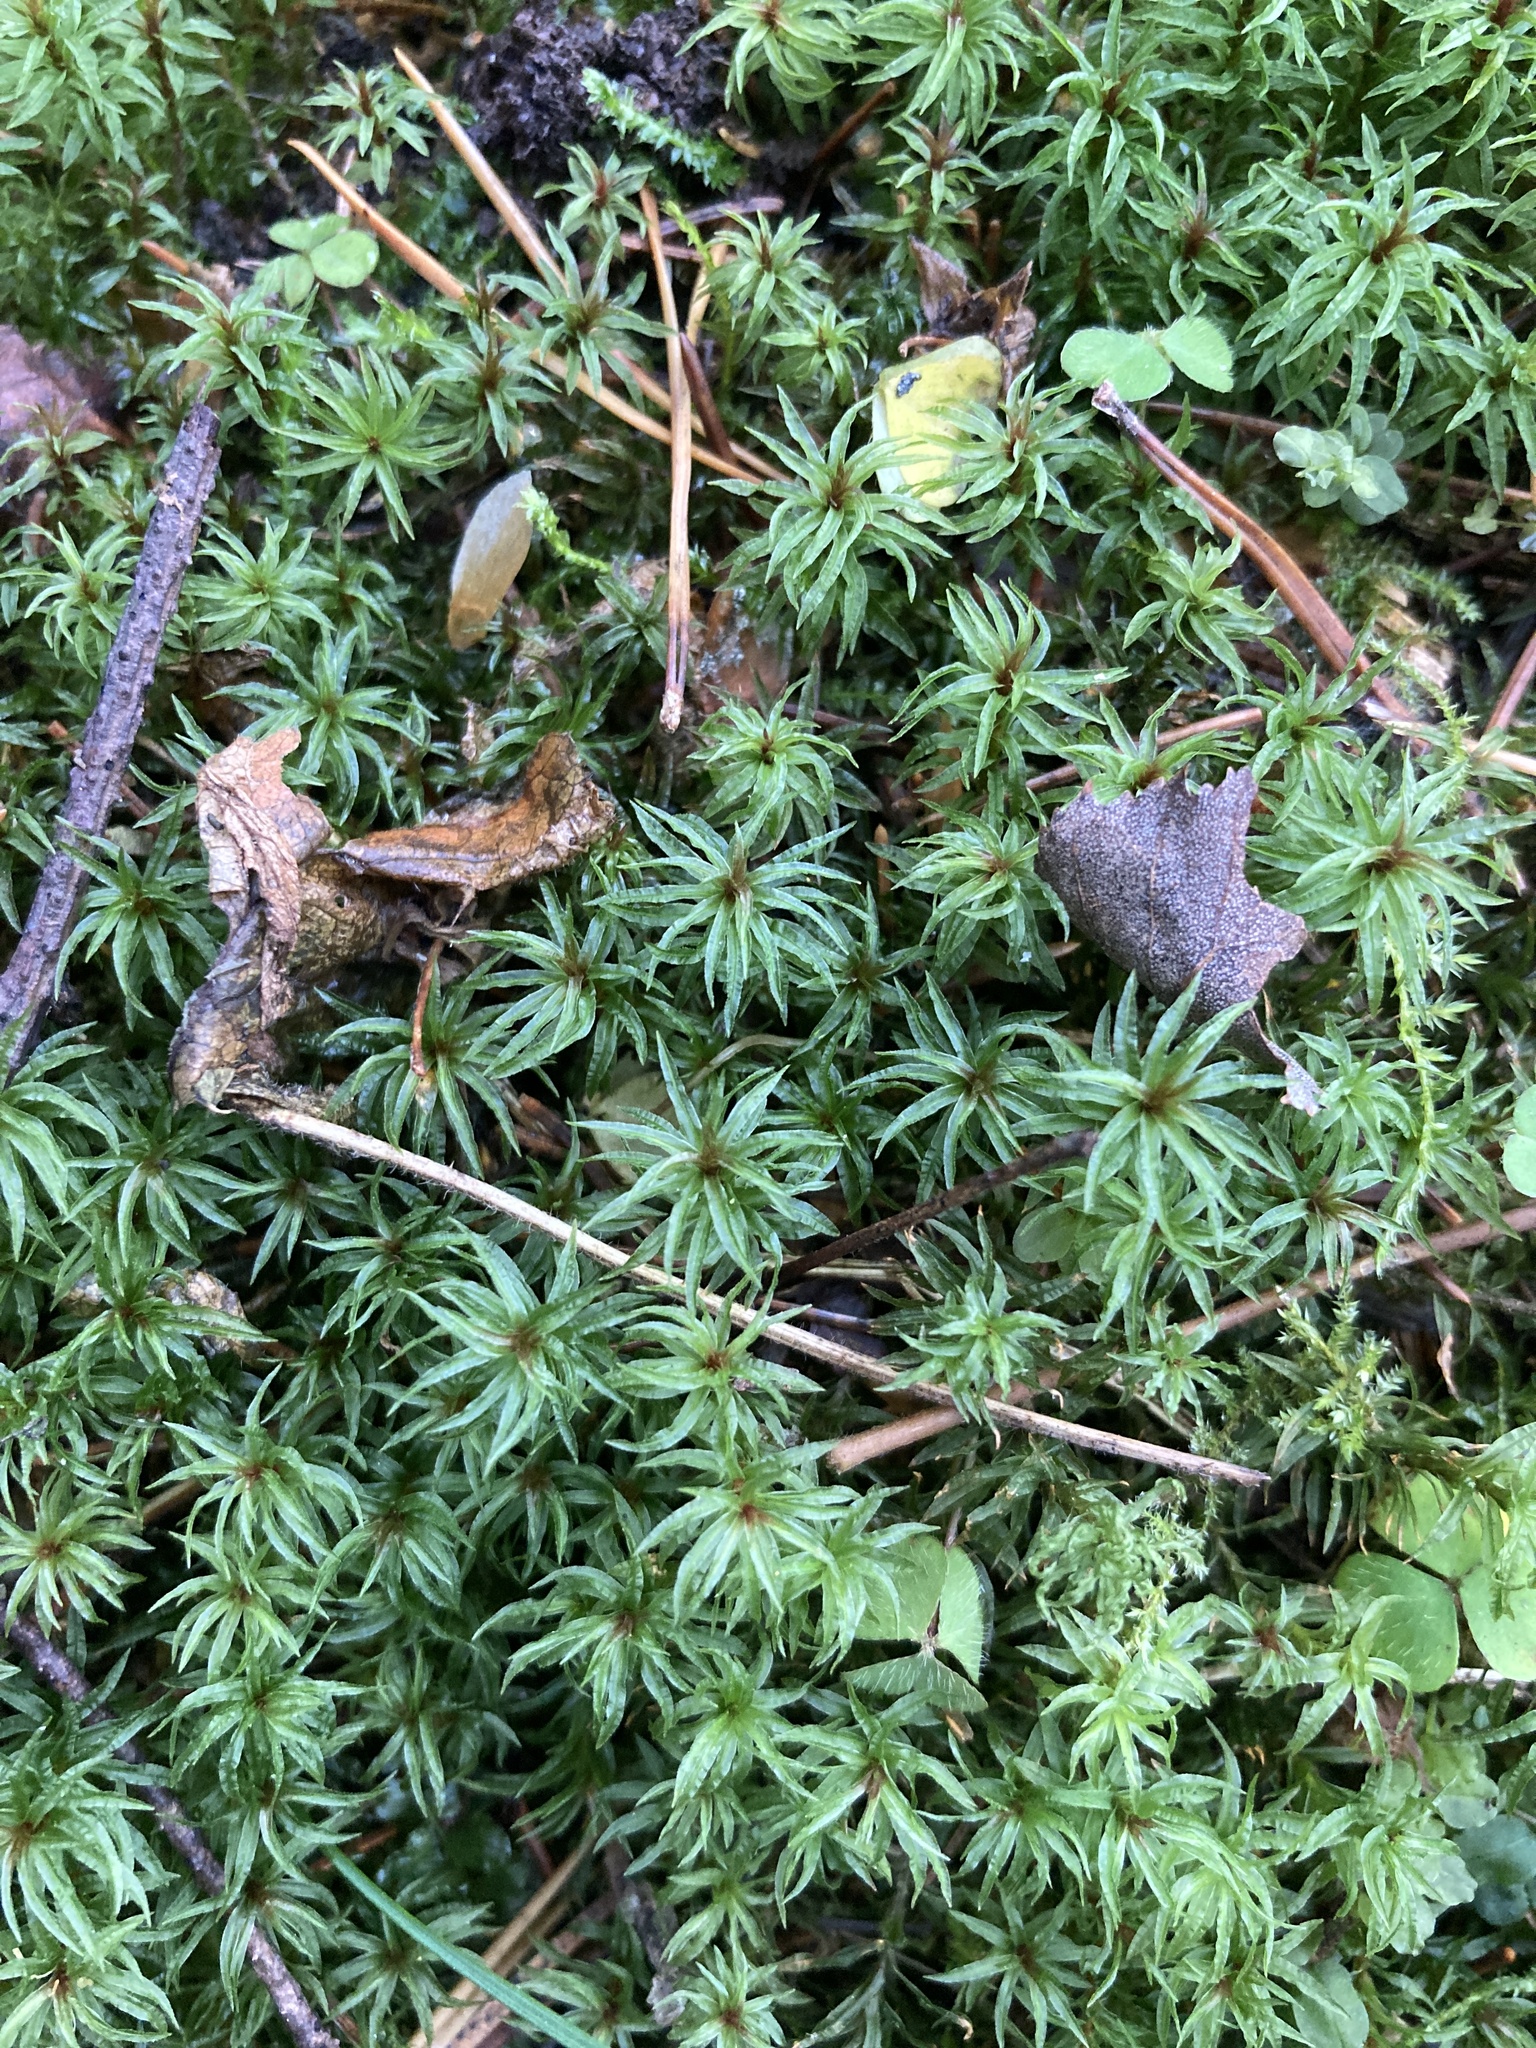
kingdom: Plantae
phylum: Bryophyta
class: Polytrichopsida
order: Polytrichales
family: Polytrichaceae
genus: Atrichum
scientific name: Atrichum undulatum
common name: Common smoothcap
